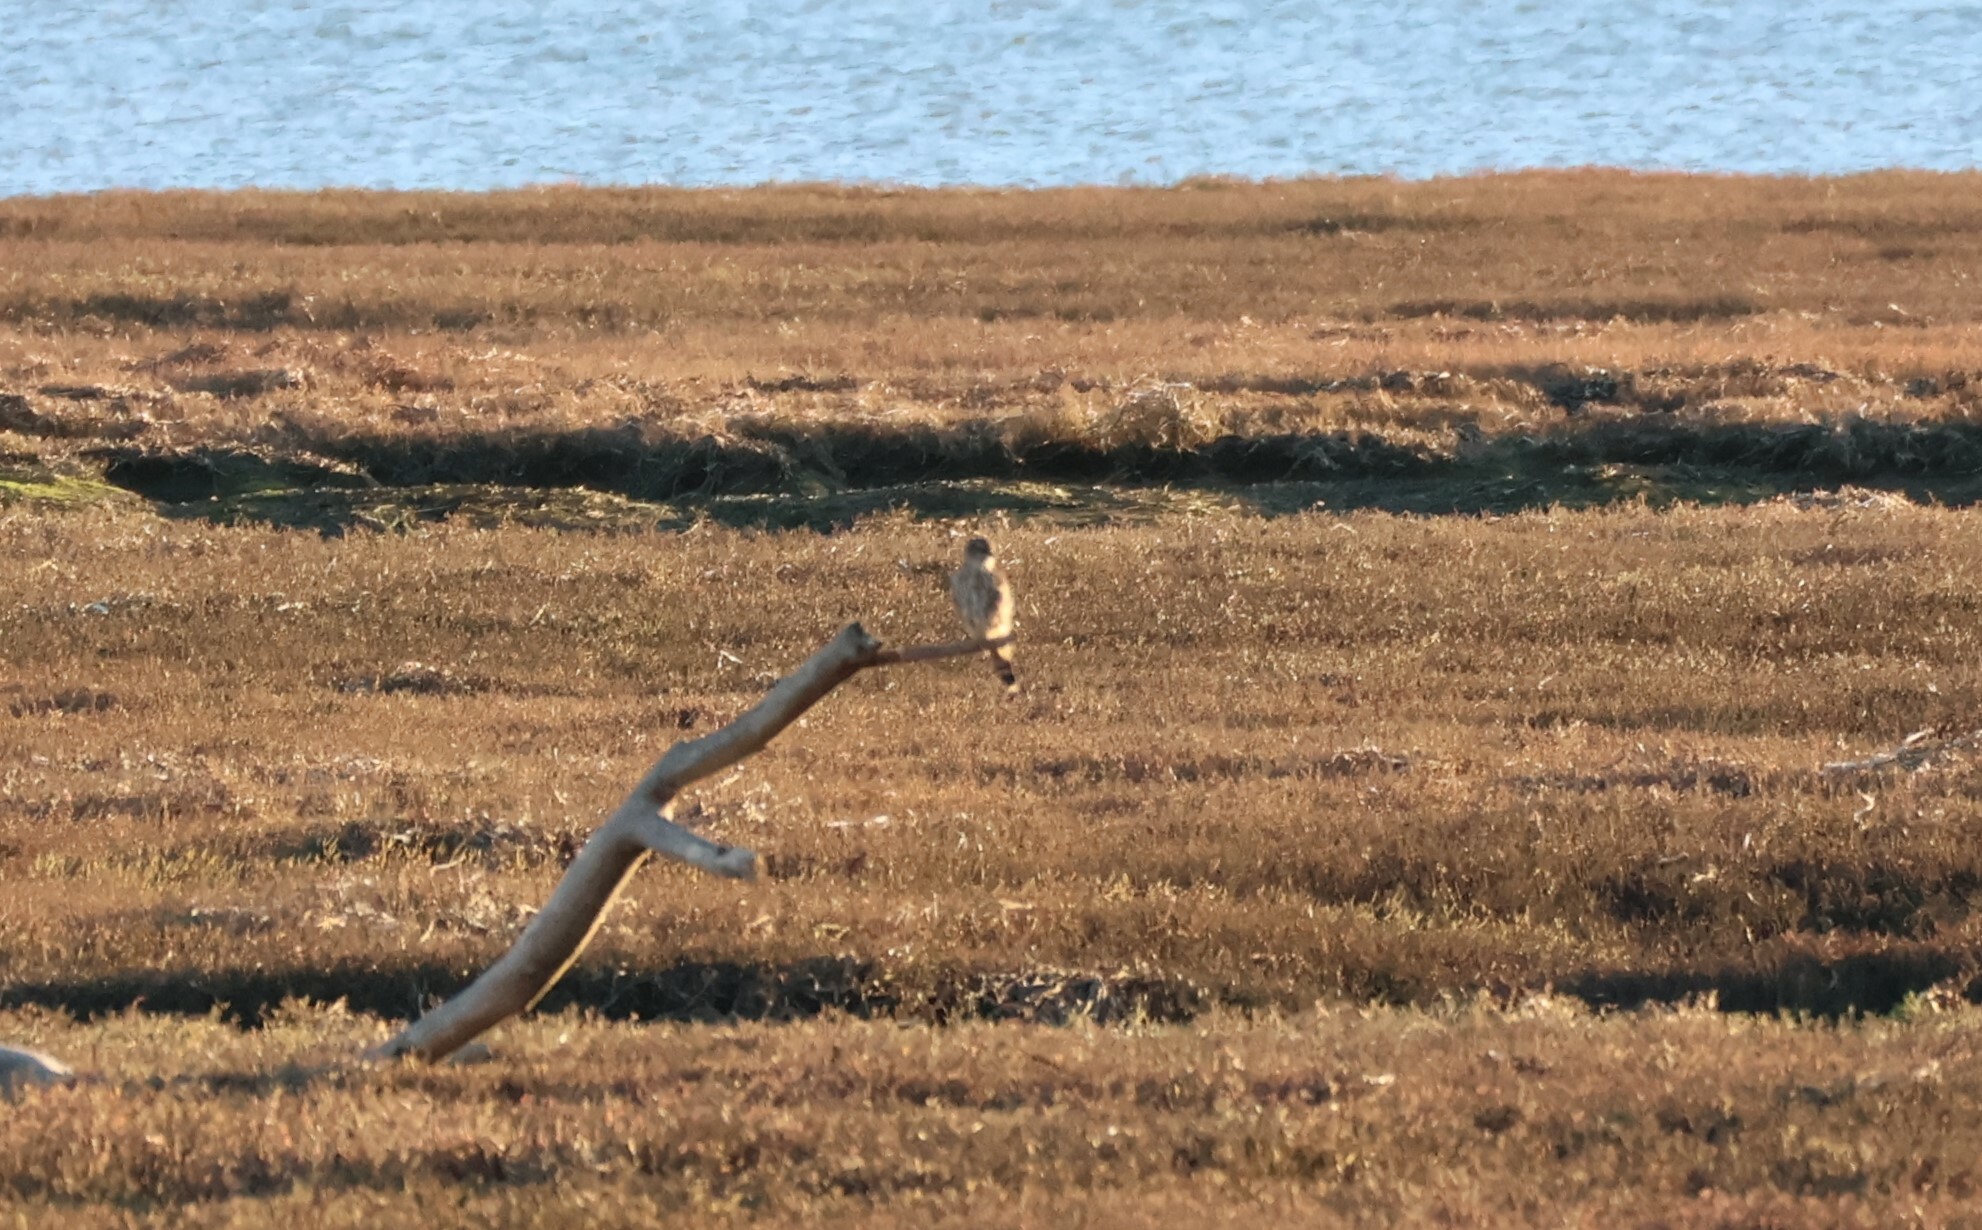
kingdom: Animalia
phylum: Chordata
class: Aves
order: Falconiformes
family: Falconidae
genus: Falco
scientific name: Falco columbarius
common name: Merlin
